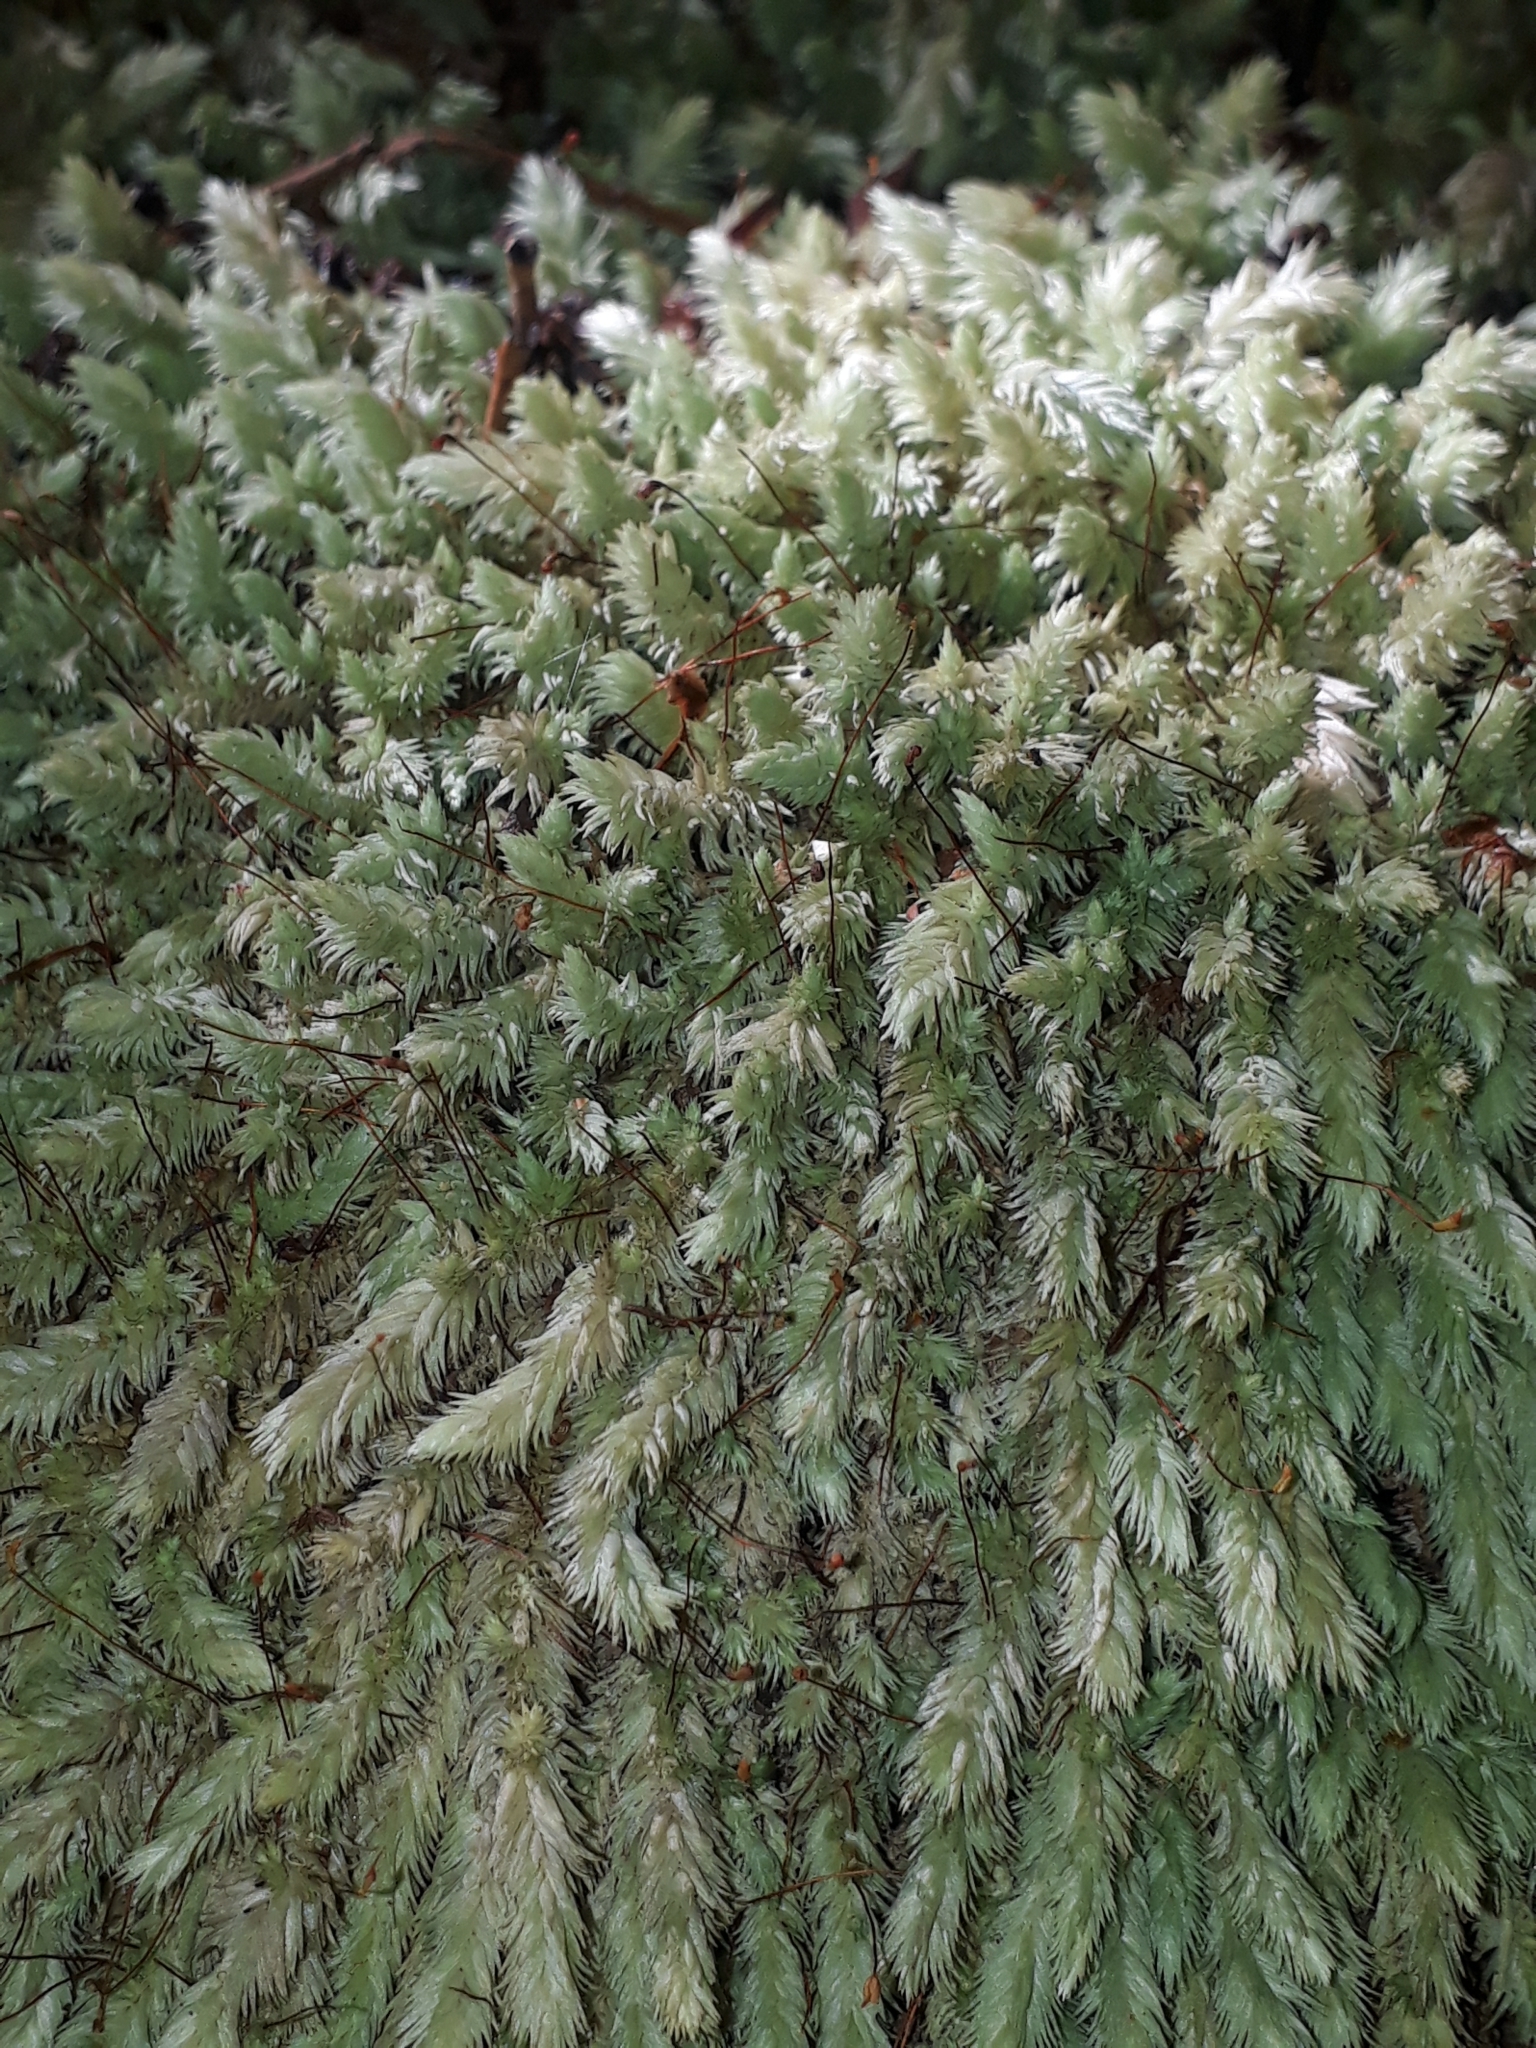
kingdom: Plantae
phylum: Bryophyta
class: Bryopsida
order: Dicranales
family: Leucobryaceae
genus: Leucobryum
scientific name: Leucobryum javense
